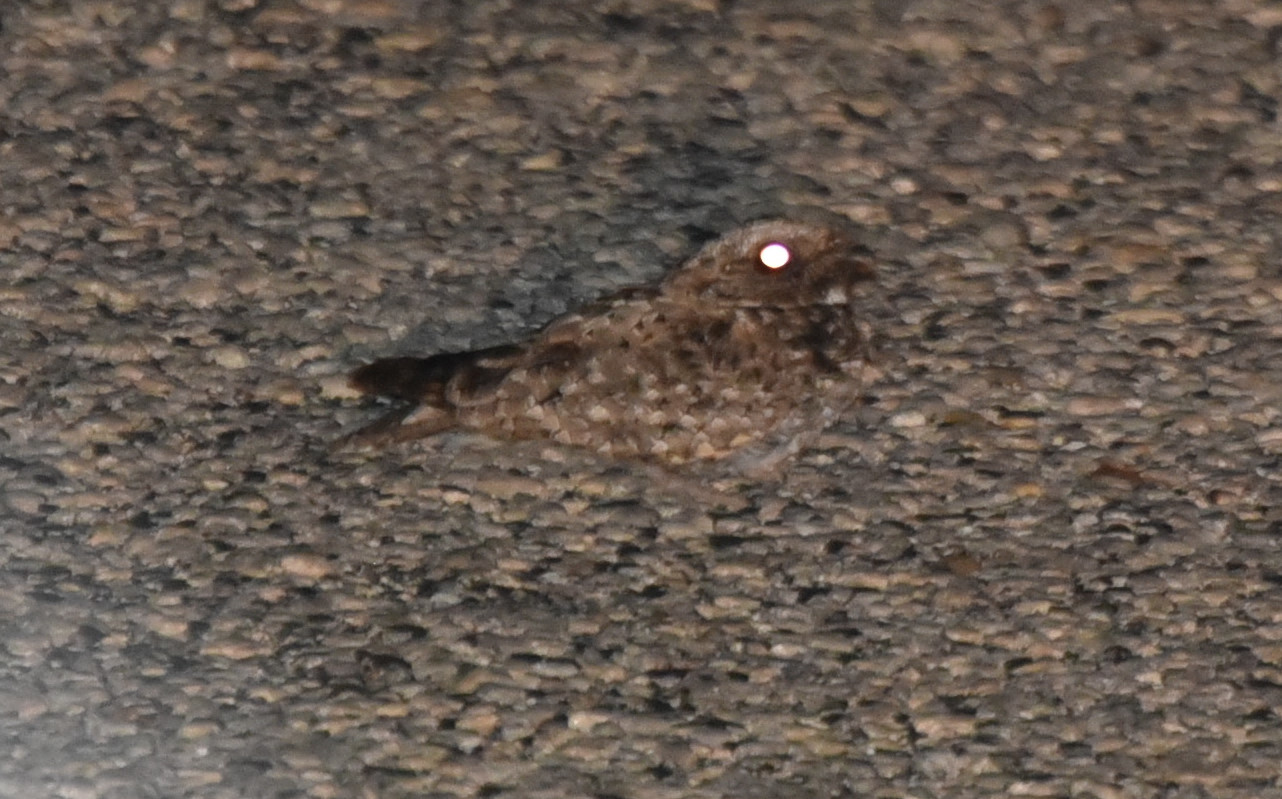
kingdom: Animalia
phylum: Chordata
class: Aves
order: Caprimulgiformes
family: Caprimulgidae
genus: Phalaenoptilus
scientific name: Phalaenoptilus nuttallii
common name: Common poorwill
